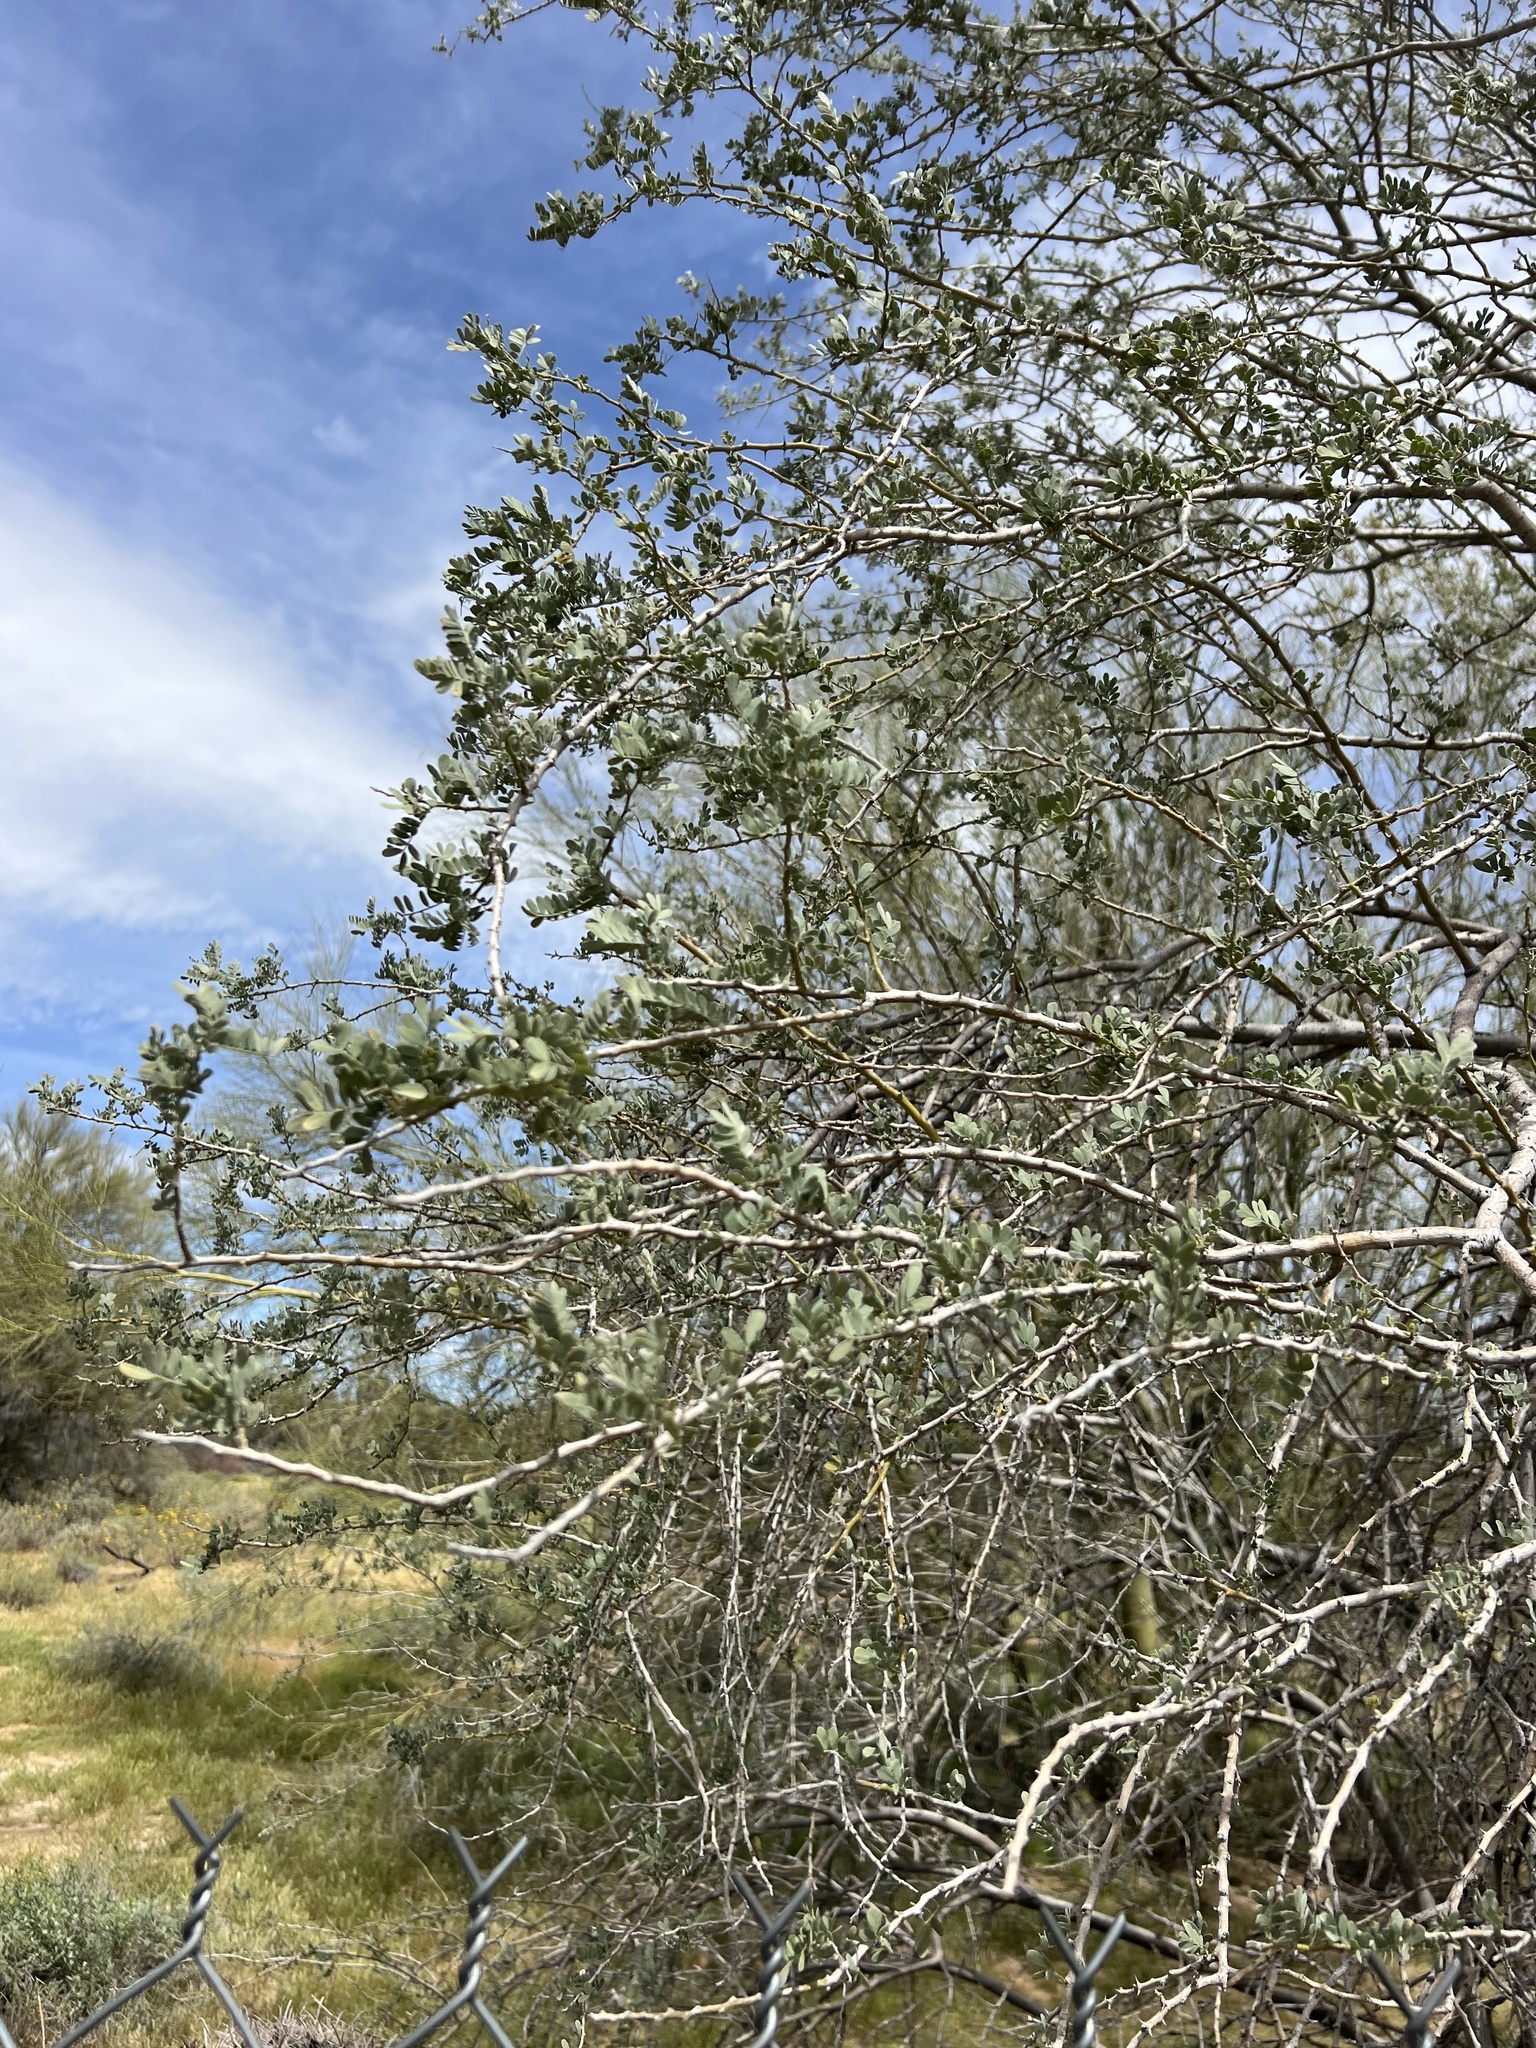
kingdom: Plantae
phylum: Tracheophyta
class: Magnoliopsida
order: Fabales
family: Fabaceae
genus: Olneya
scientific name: Olneya tesota
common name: Desert ironwood
